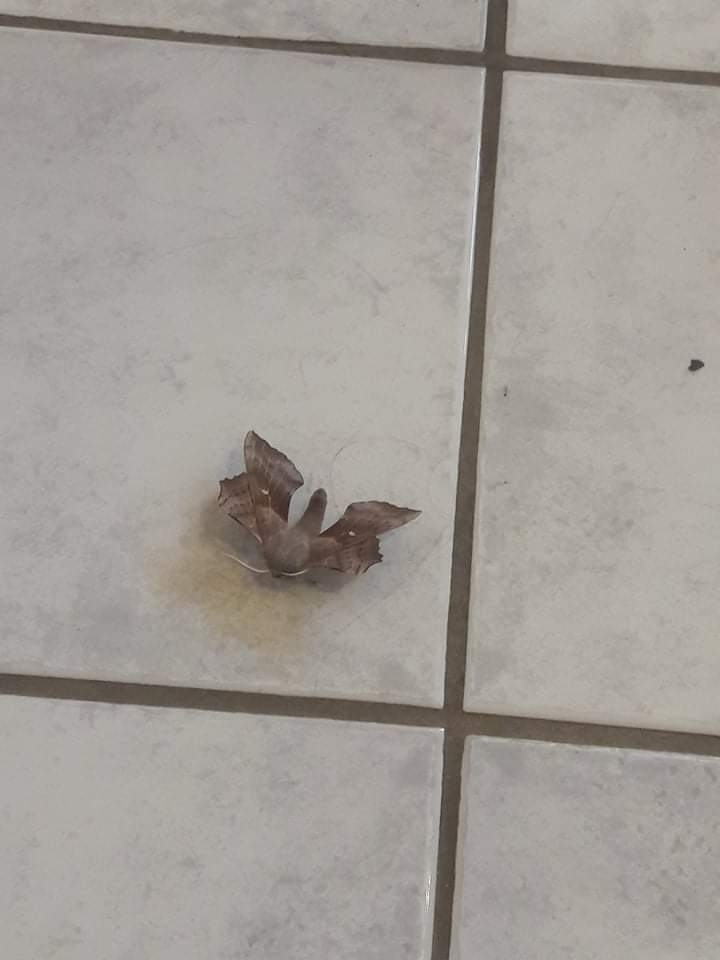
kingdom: Animalia
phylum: Arthropoda
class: Insecta
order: Lepidoptera
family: Sphingidae
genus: Laothoe
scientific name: Laothoe populi
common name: Poplar hawk-moth
